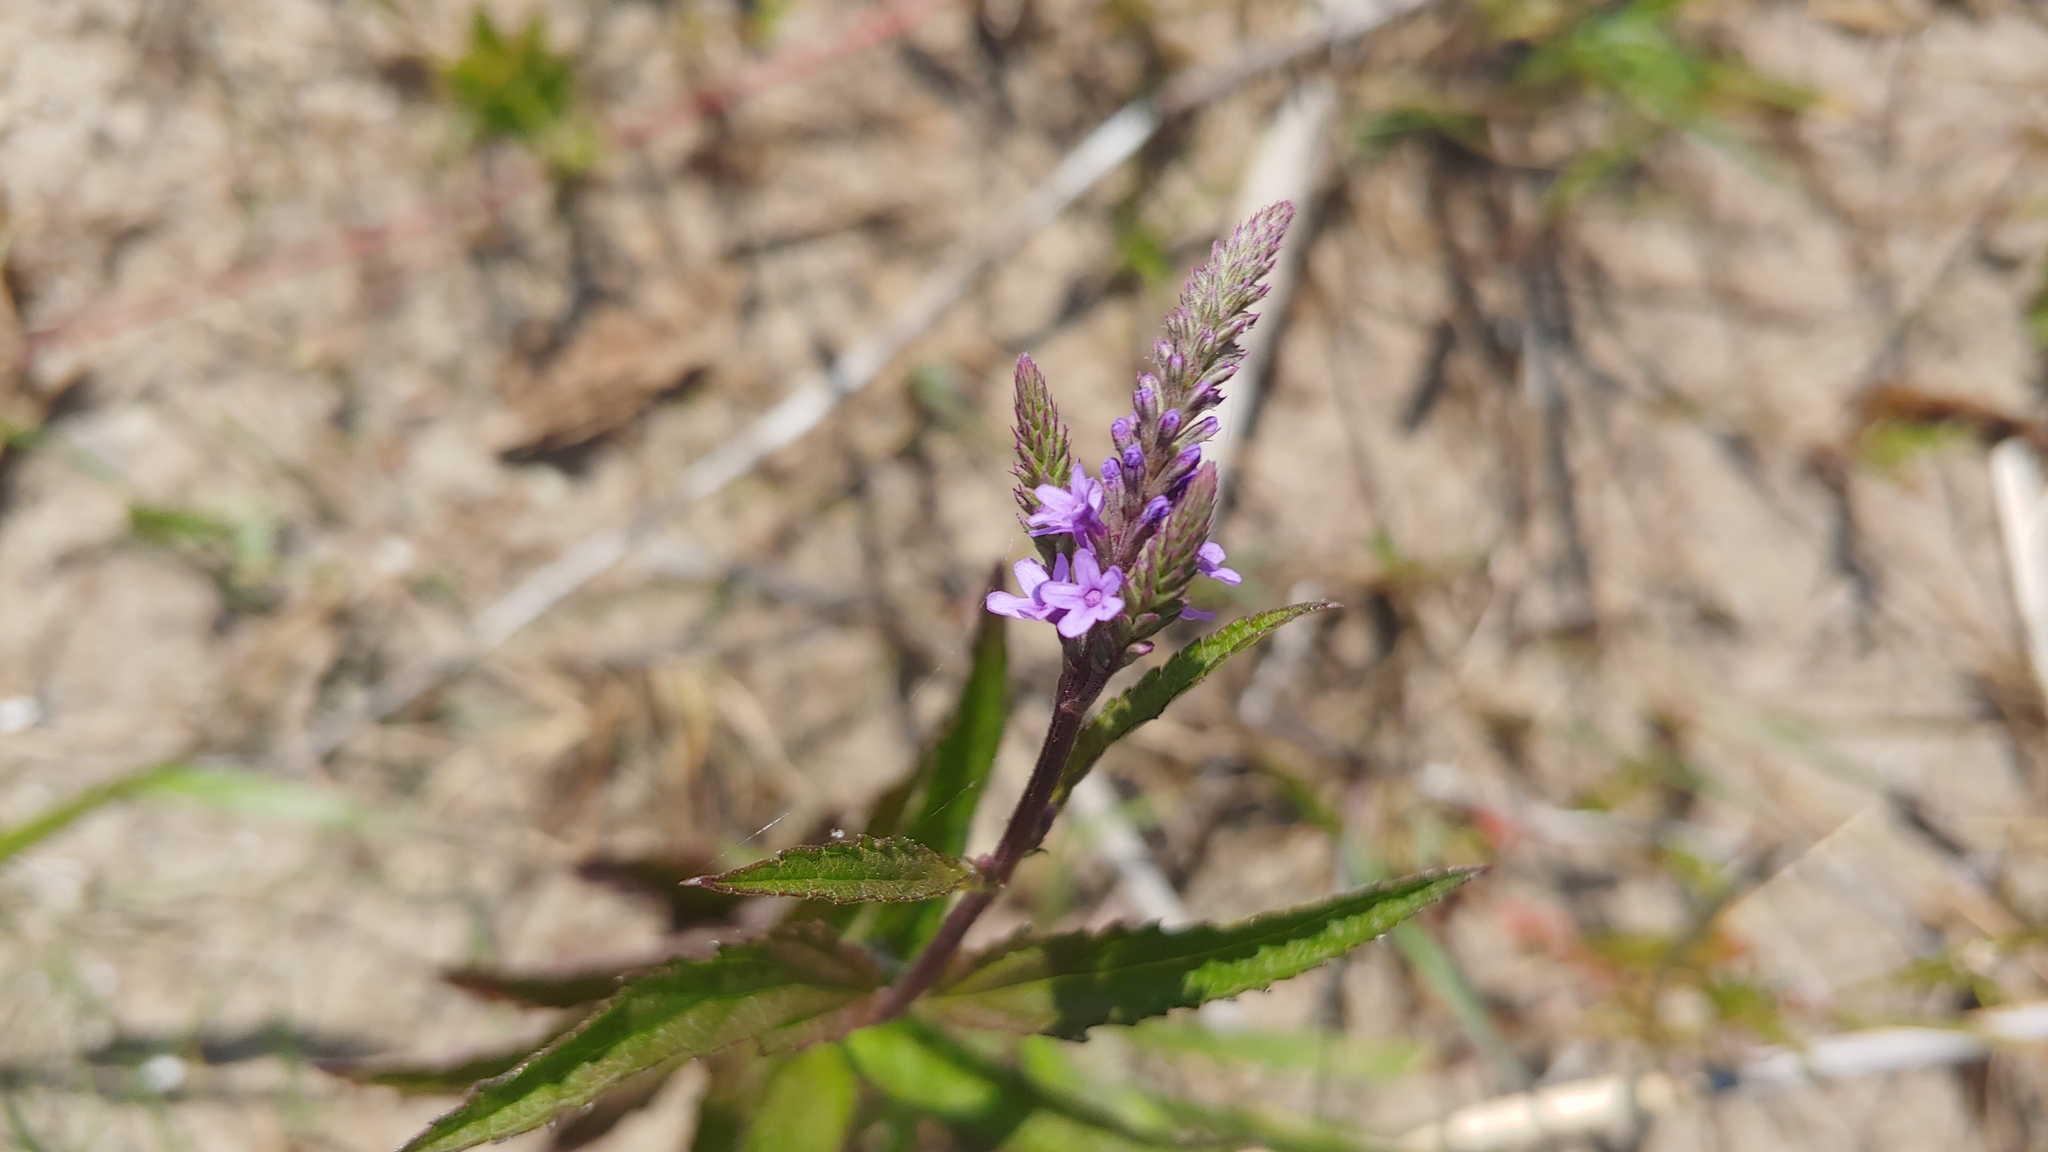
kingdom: Plantae
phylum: Tracheophyta
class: Magnoliopsida
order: Lamiales
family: Verbenaceae
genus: Verbena
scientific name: Verbena hastata
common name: American blue vervain
